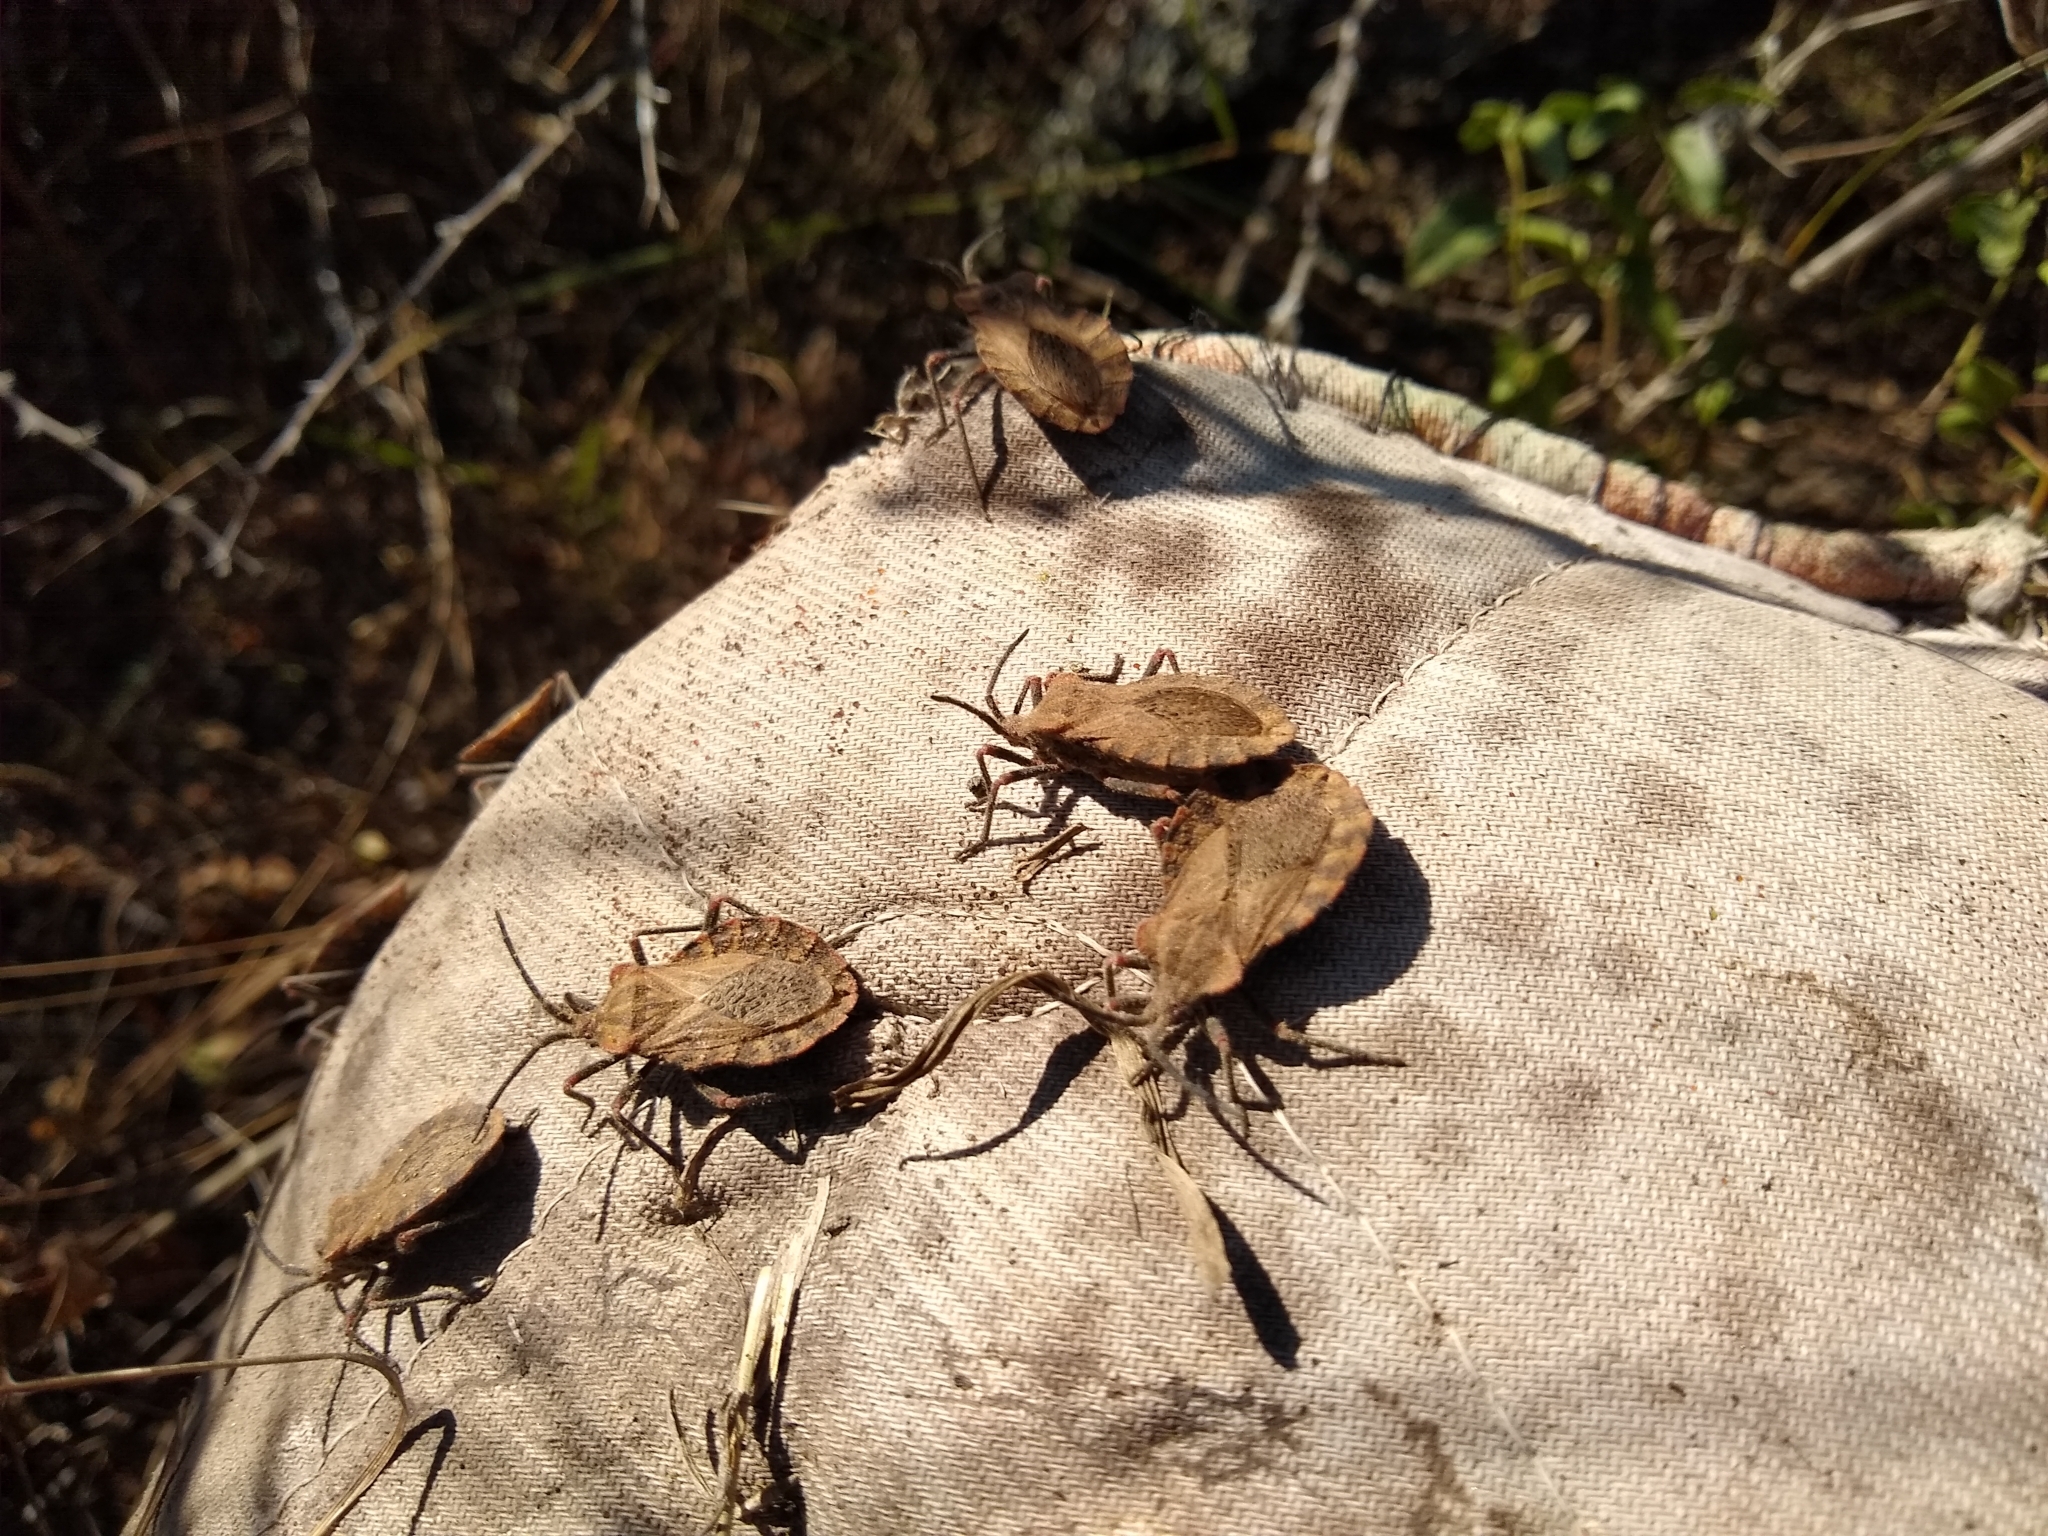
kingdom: Animalia
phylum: Arthropoda
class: Insecta
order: Hemiptera
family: Coreidae
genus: Spartocera
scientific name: Spartocera fusca
